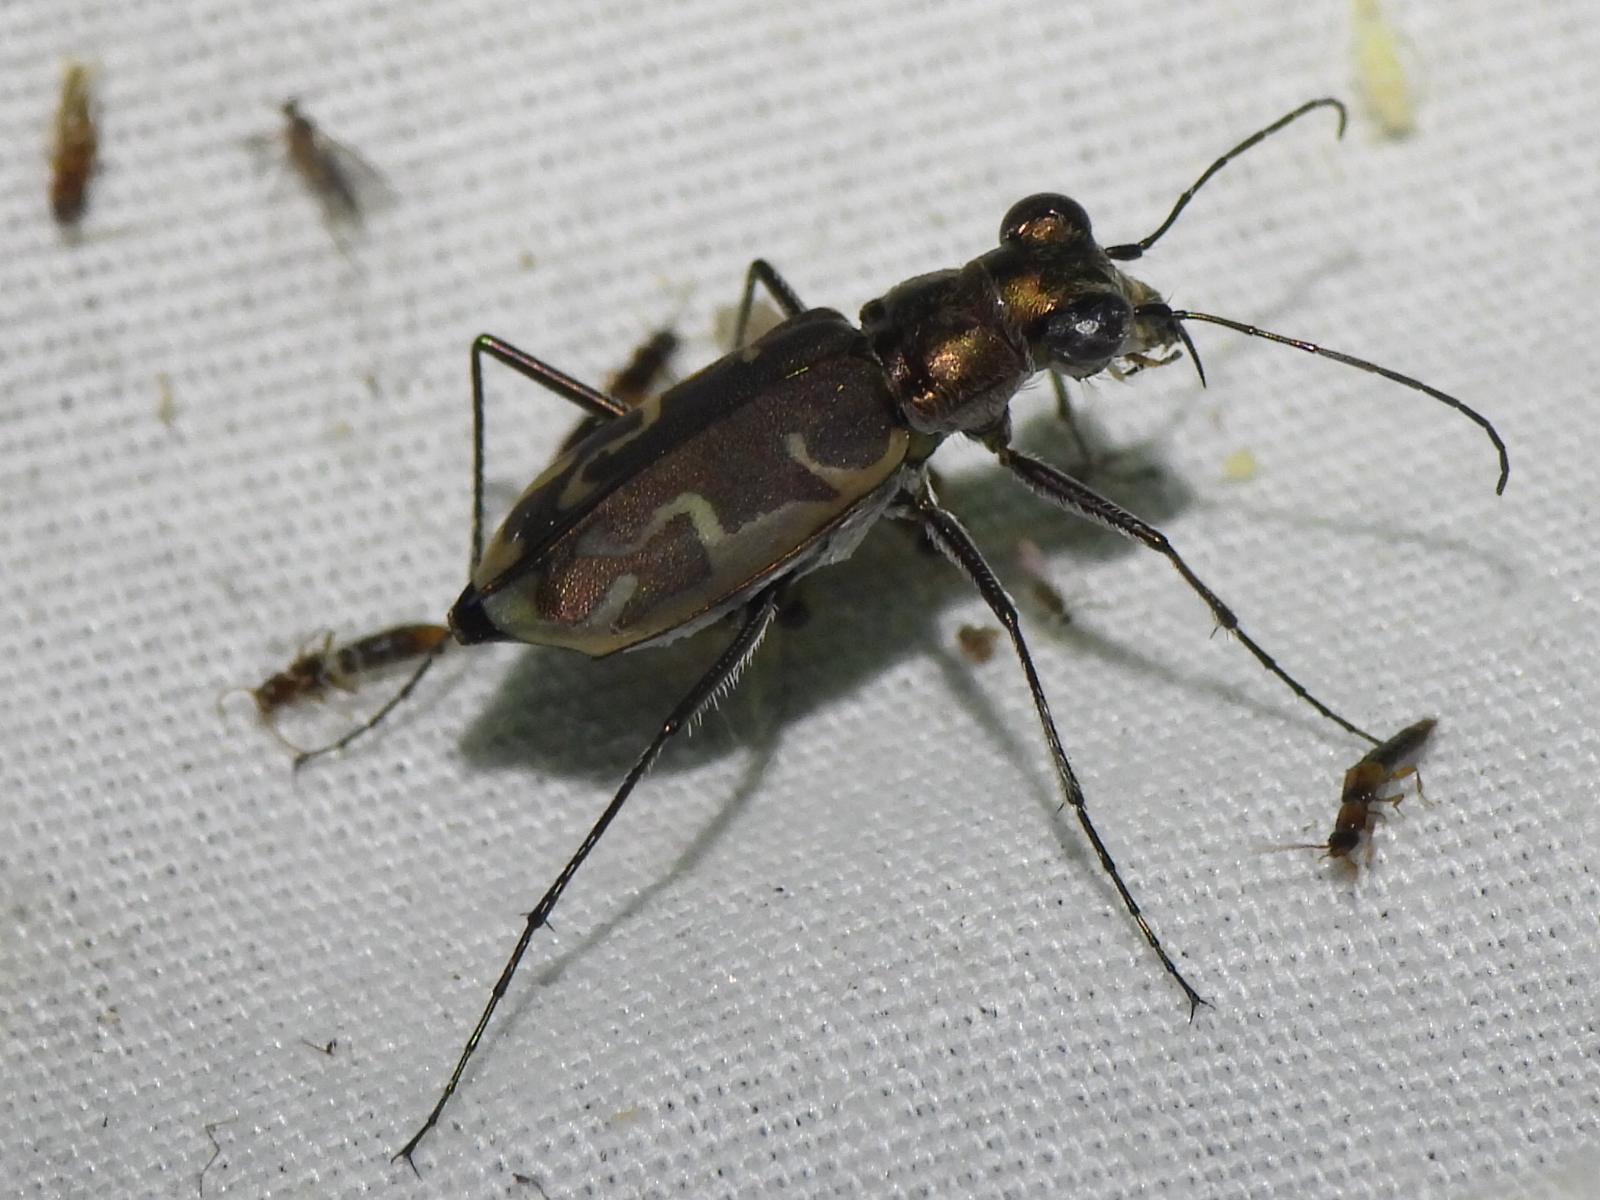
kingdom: Animalia
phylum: Arthropoda
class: Insecta
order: Coleoptera
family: Carabidae
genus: Ellipsoptera
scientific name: Ellipsoptera sperata
